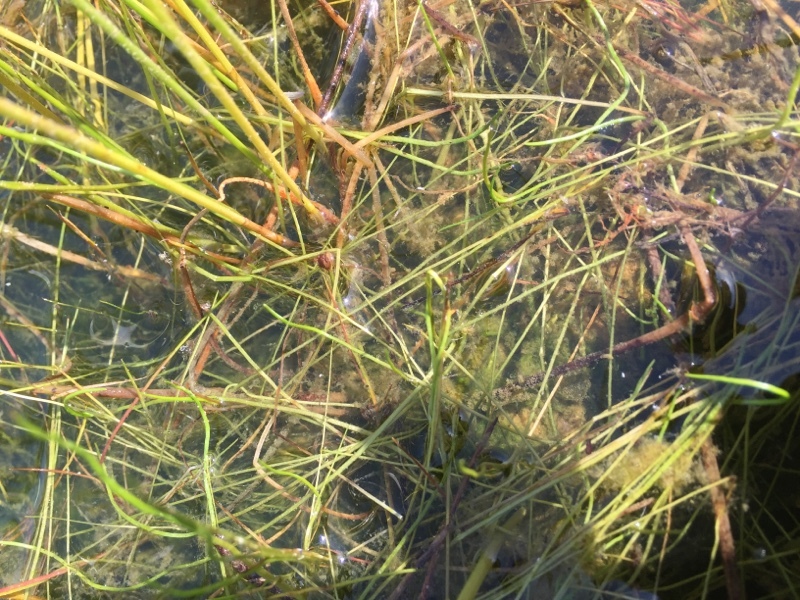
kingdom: Plantae
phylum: Tracheophyta
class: Polypodiopsida
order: Salviniales
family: Marsileaceae
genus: Pilularia
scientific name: Pilularia globulifera
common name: Pillwort
